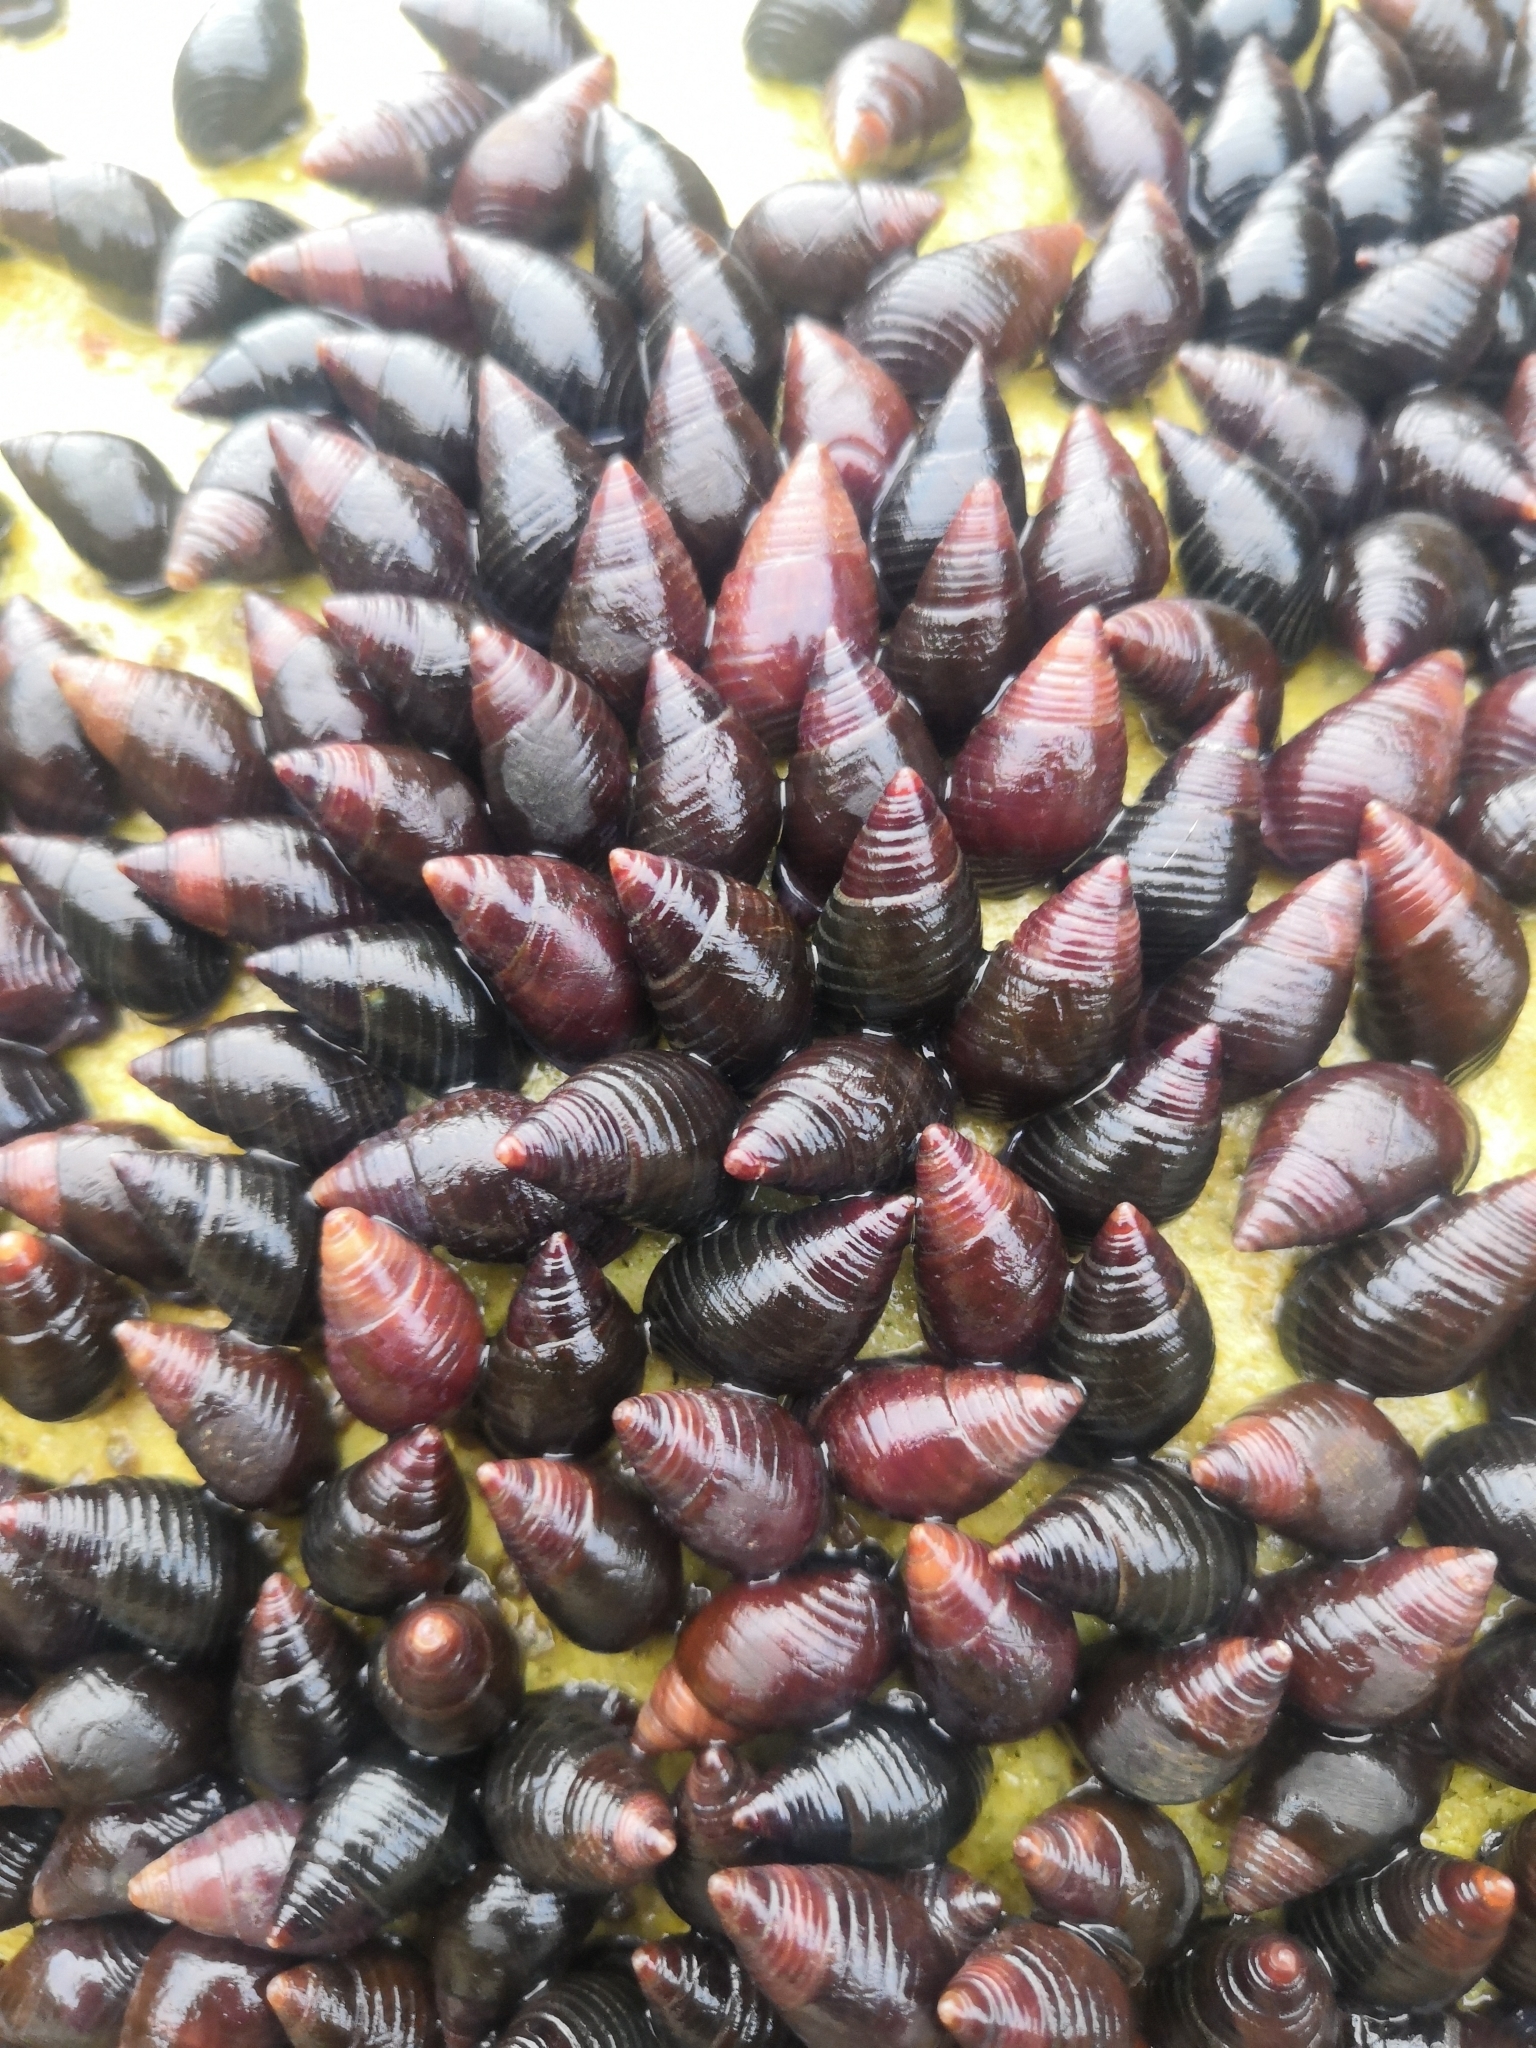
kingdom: Animalia
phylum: Mollusca
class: Gastropoda
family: Planaxidae
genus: Supplanaxis
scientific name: Supplanaxis obsoletus
